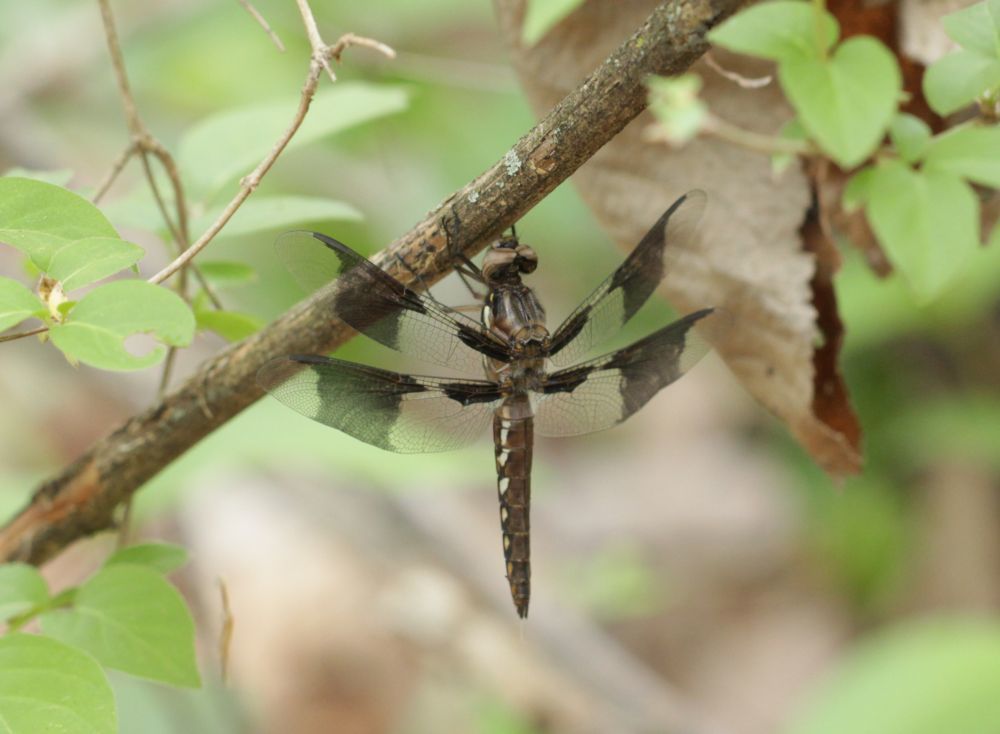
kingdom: Animalia
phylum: Arthropoda
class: Insecta
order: Odonata
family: Libellulidae
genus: Plathemis
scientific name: Plathemis lydia
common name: Common whitetail
